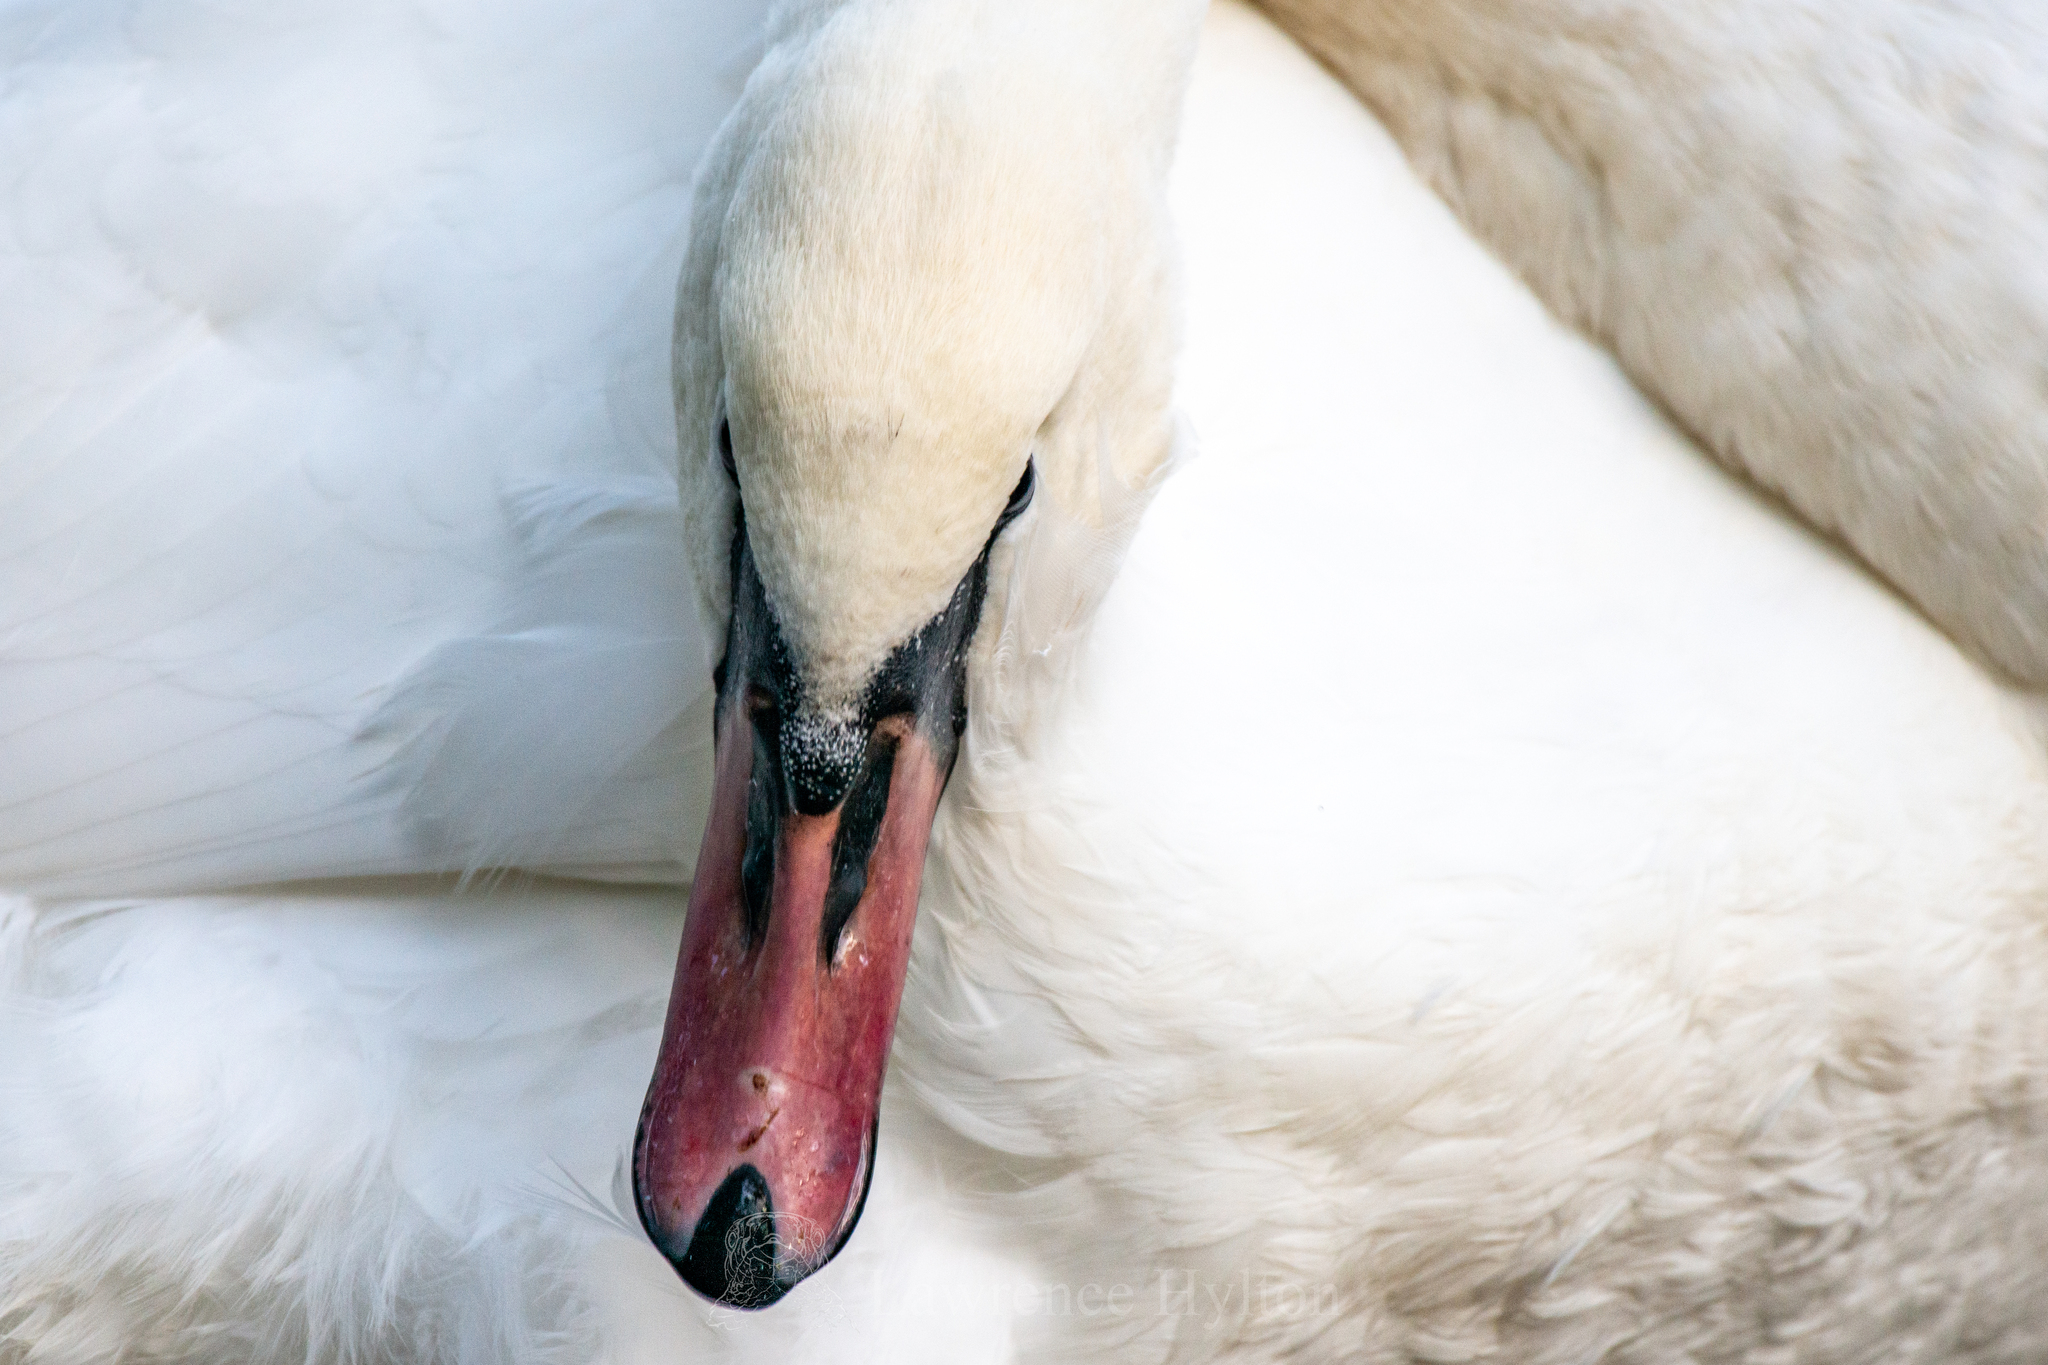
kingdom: Animalia
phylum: Chordata
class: Aves
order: Anseriformes
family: Anatidae
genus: Cygnus
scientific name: Cygnus olor
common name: Mute swan
